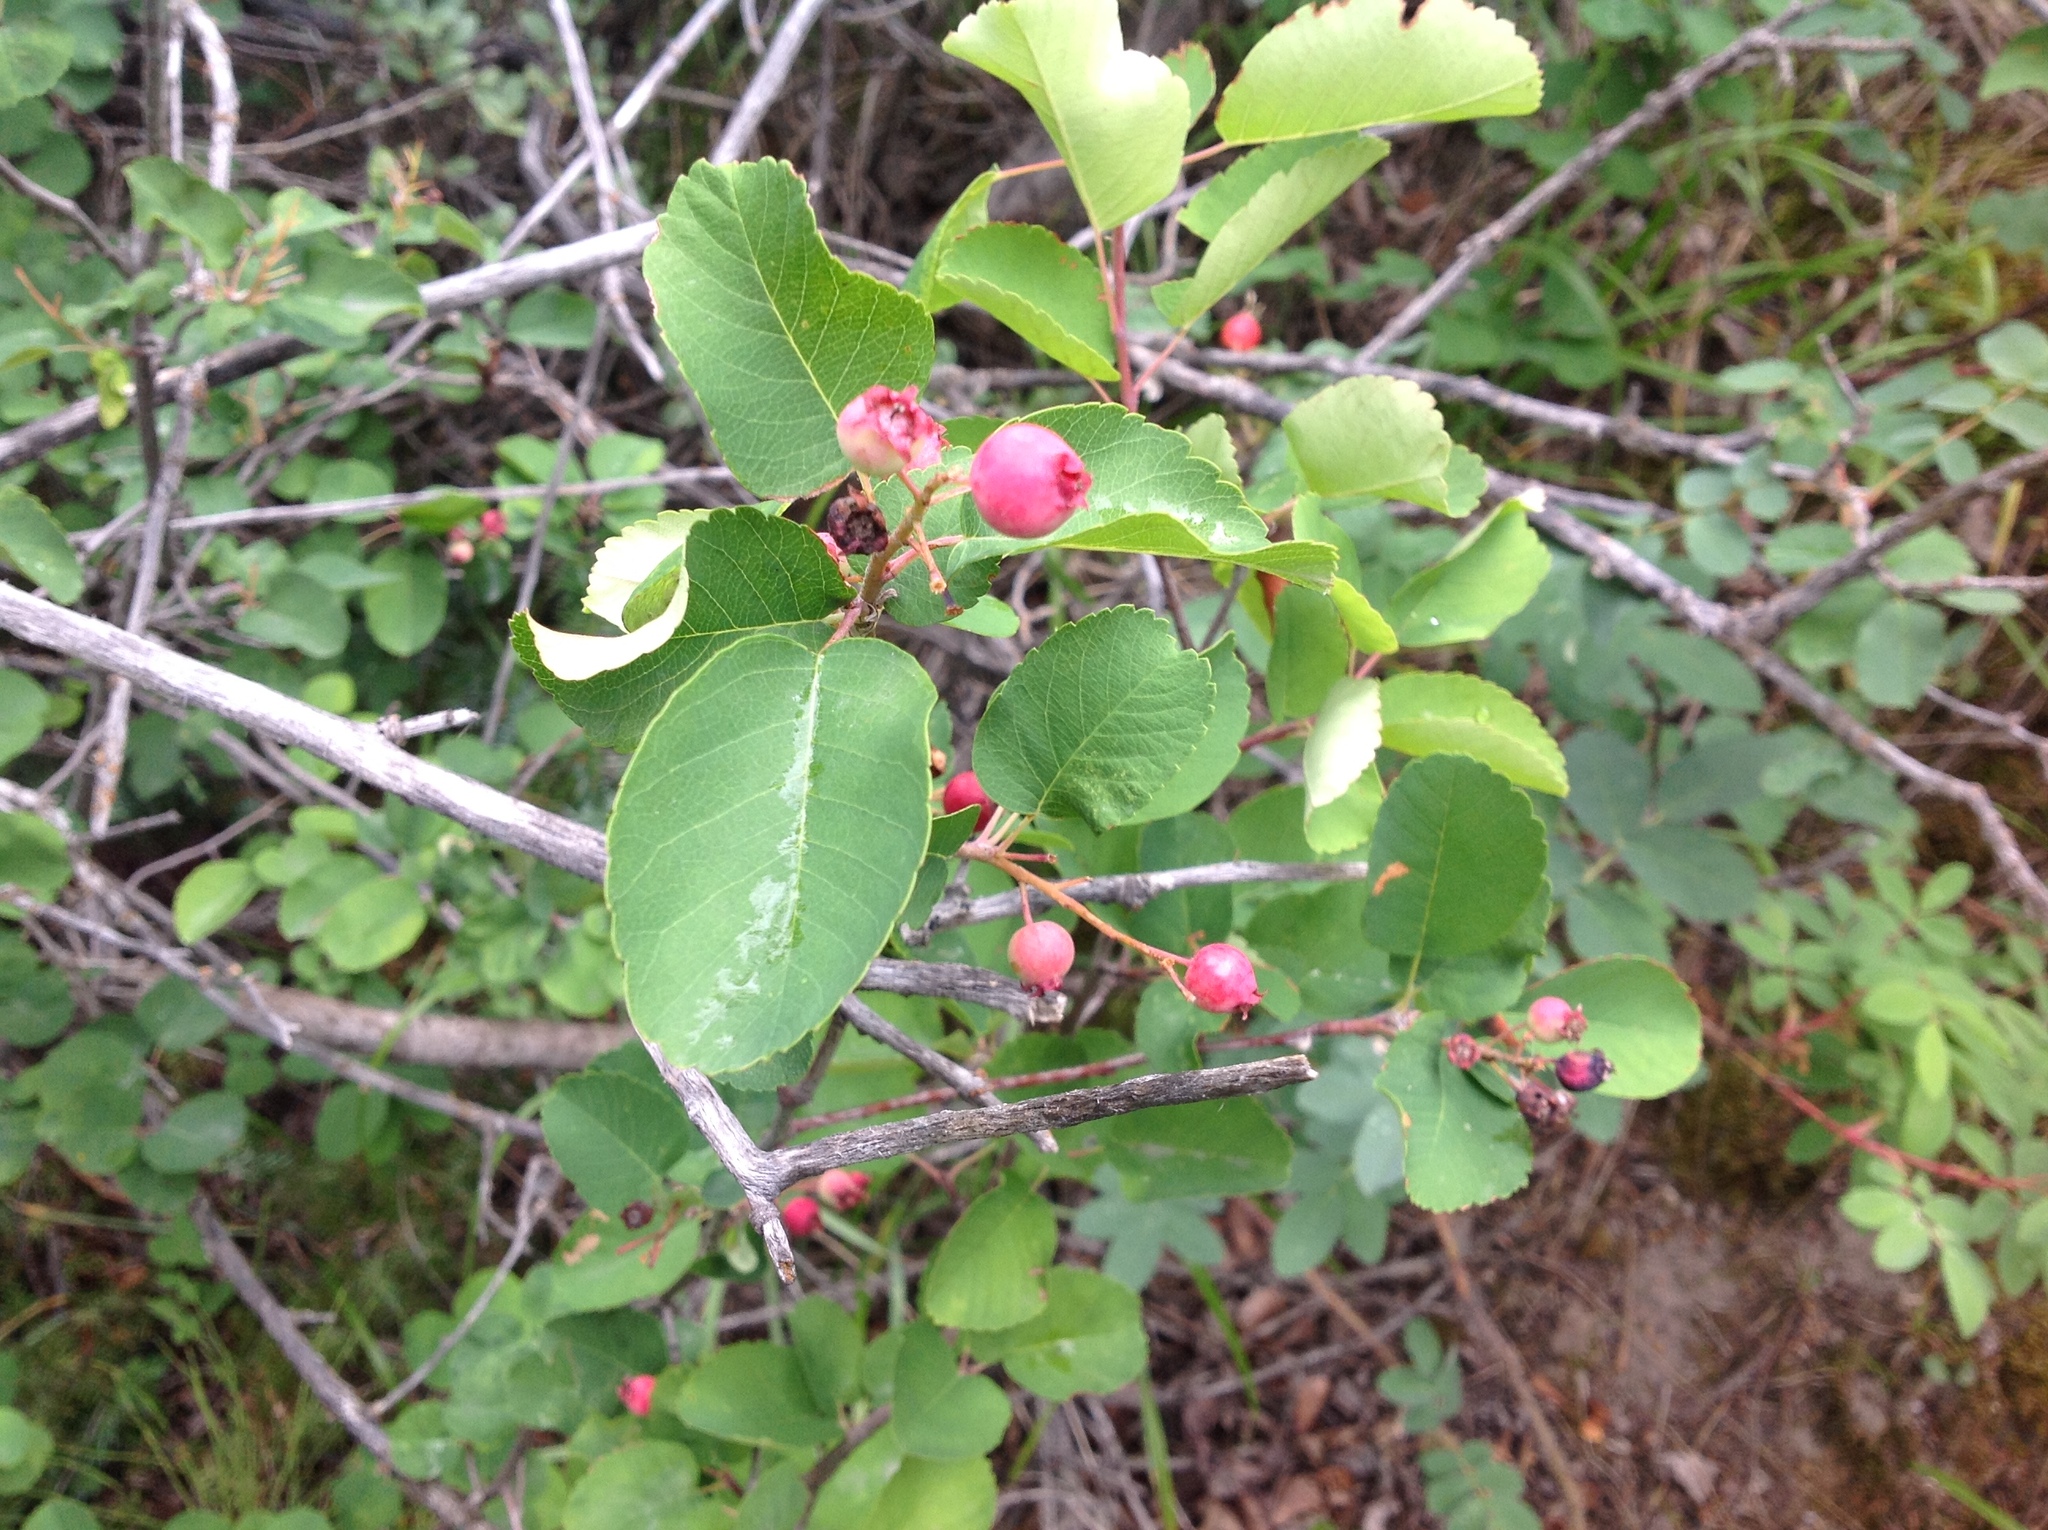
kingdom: Plantae
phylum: Tracheophyta
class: Magnoliopsida
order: Rosales
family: Rosaceae
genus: Amelanchier
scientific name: Amelanchier alnifolia
